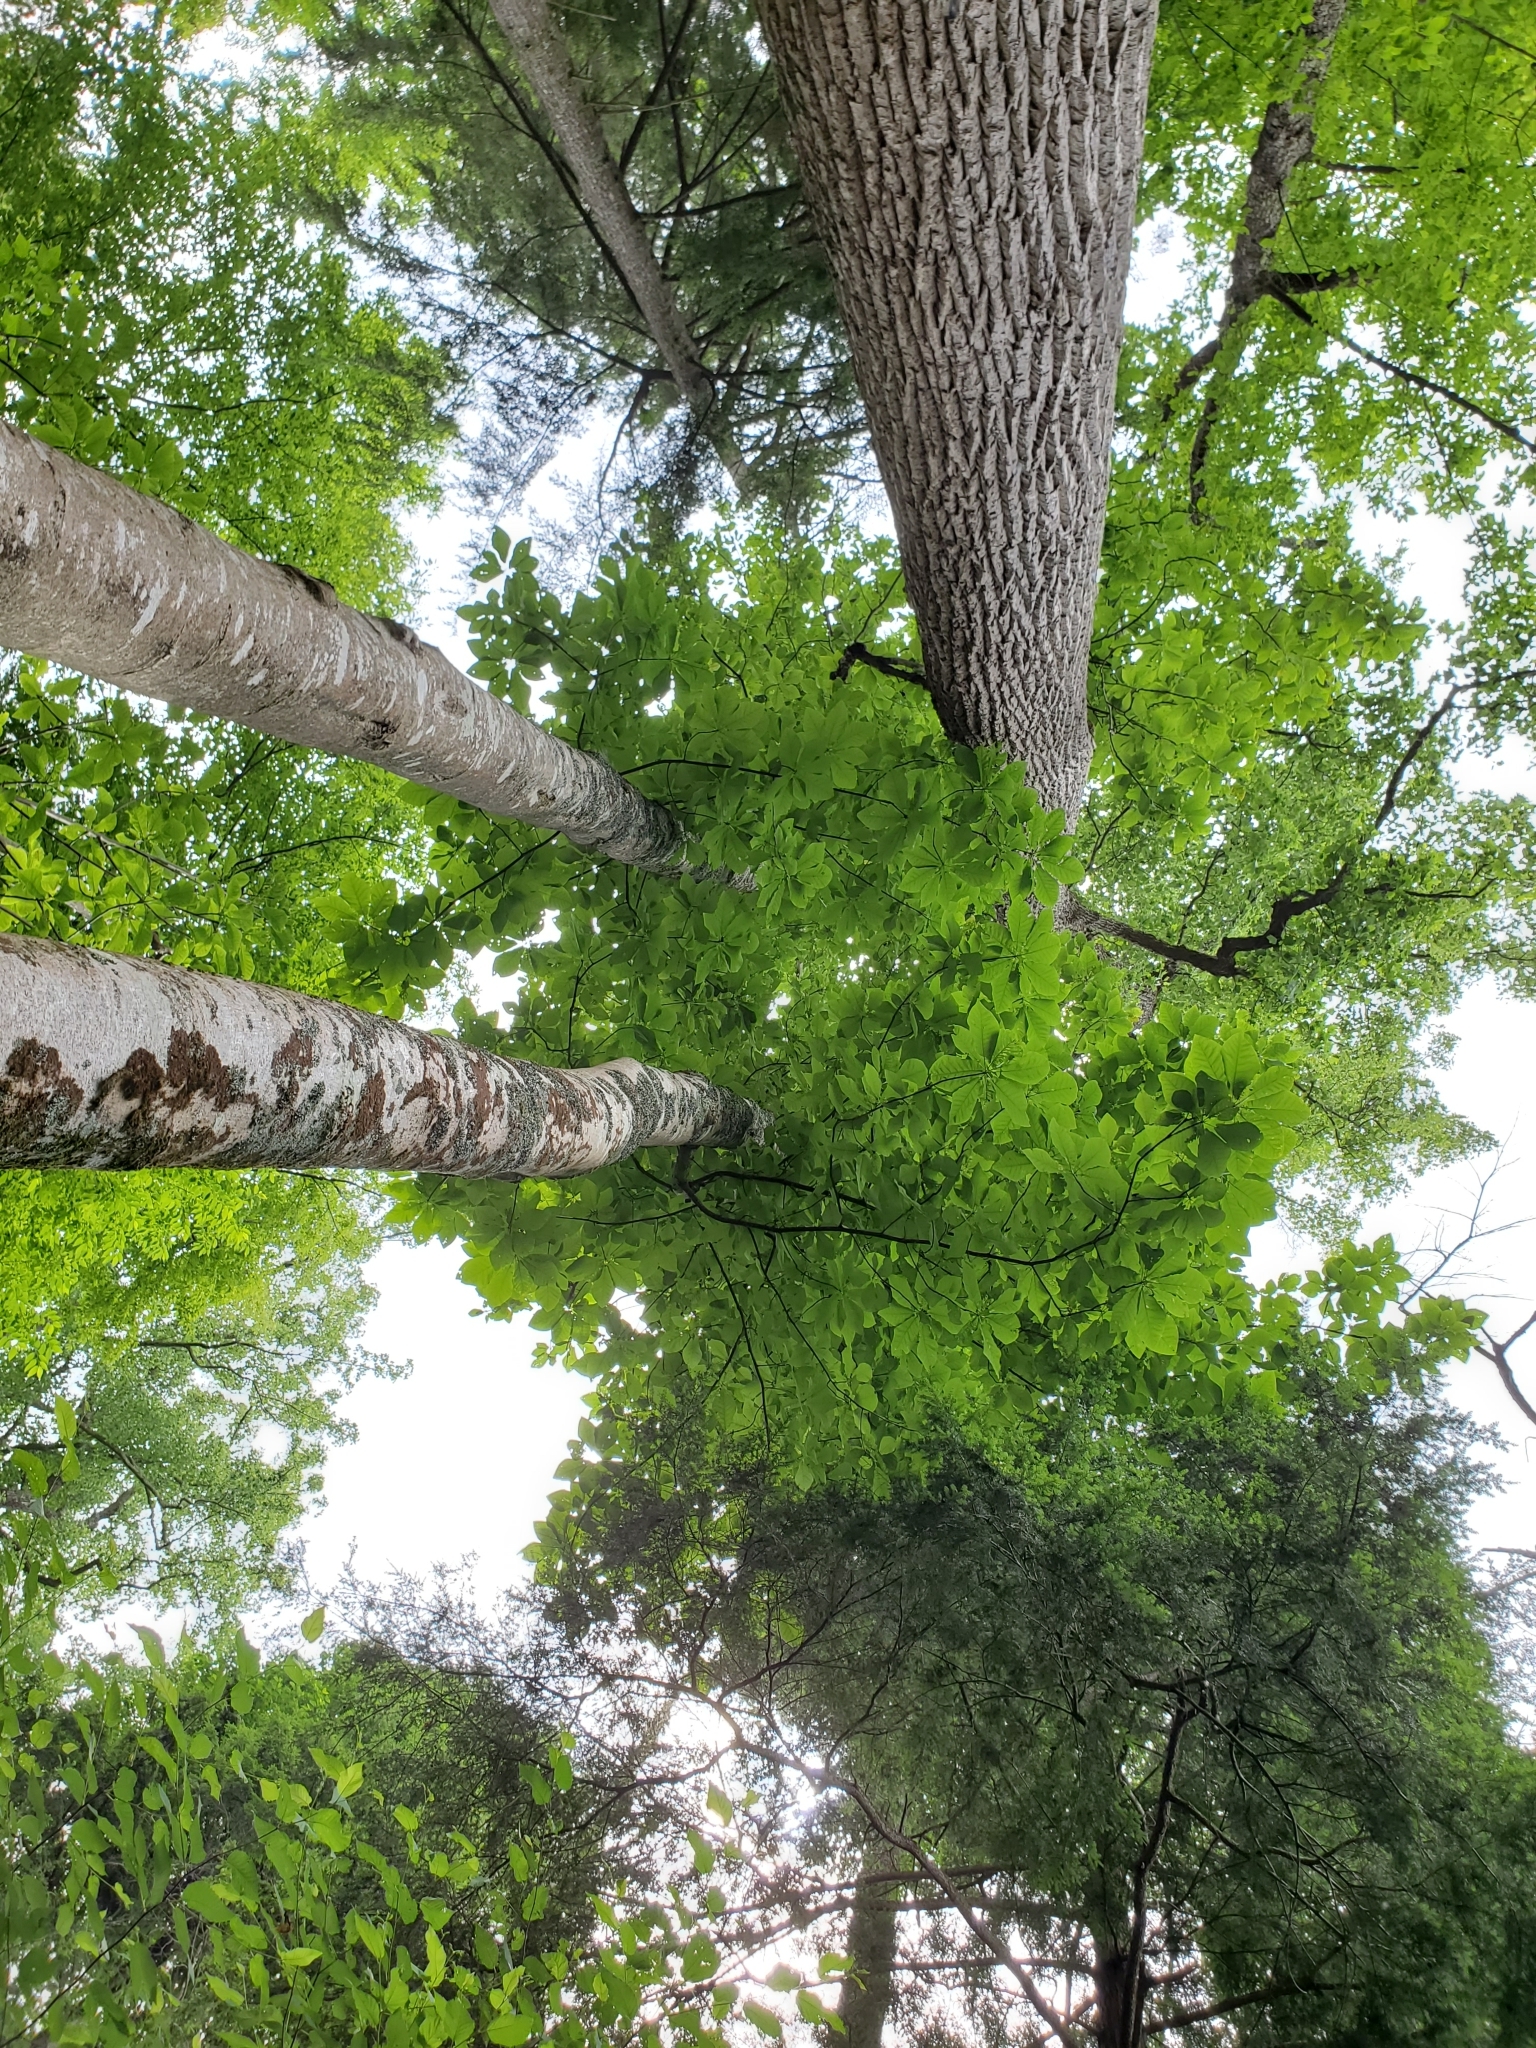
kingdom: Plantae
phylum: Tracheophyta
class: Magnoliopsida
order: Magnoliales
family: Magnoliaceae
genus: Magnolia
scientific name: Magnolia fraseri
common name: Fraser's magnolia
